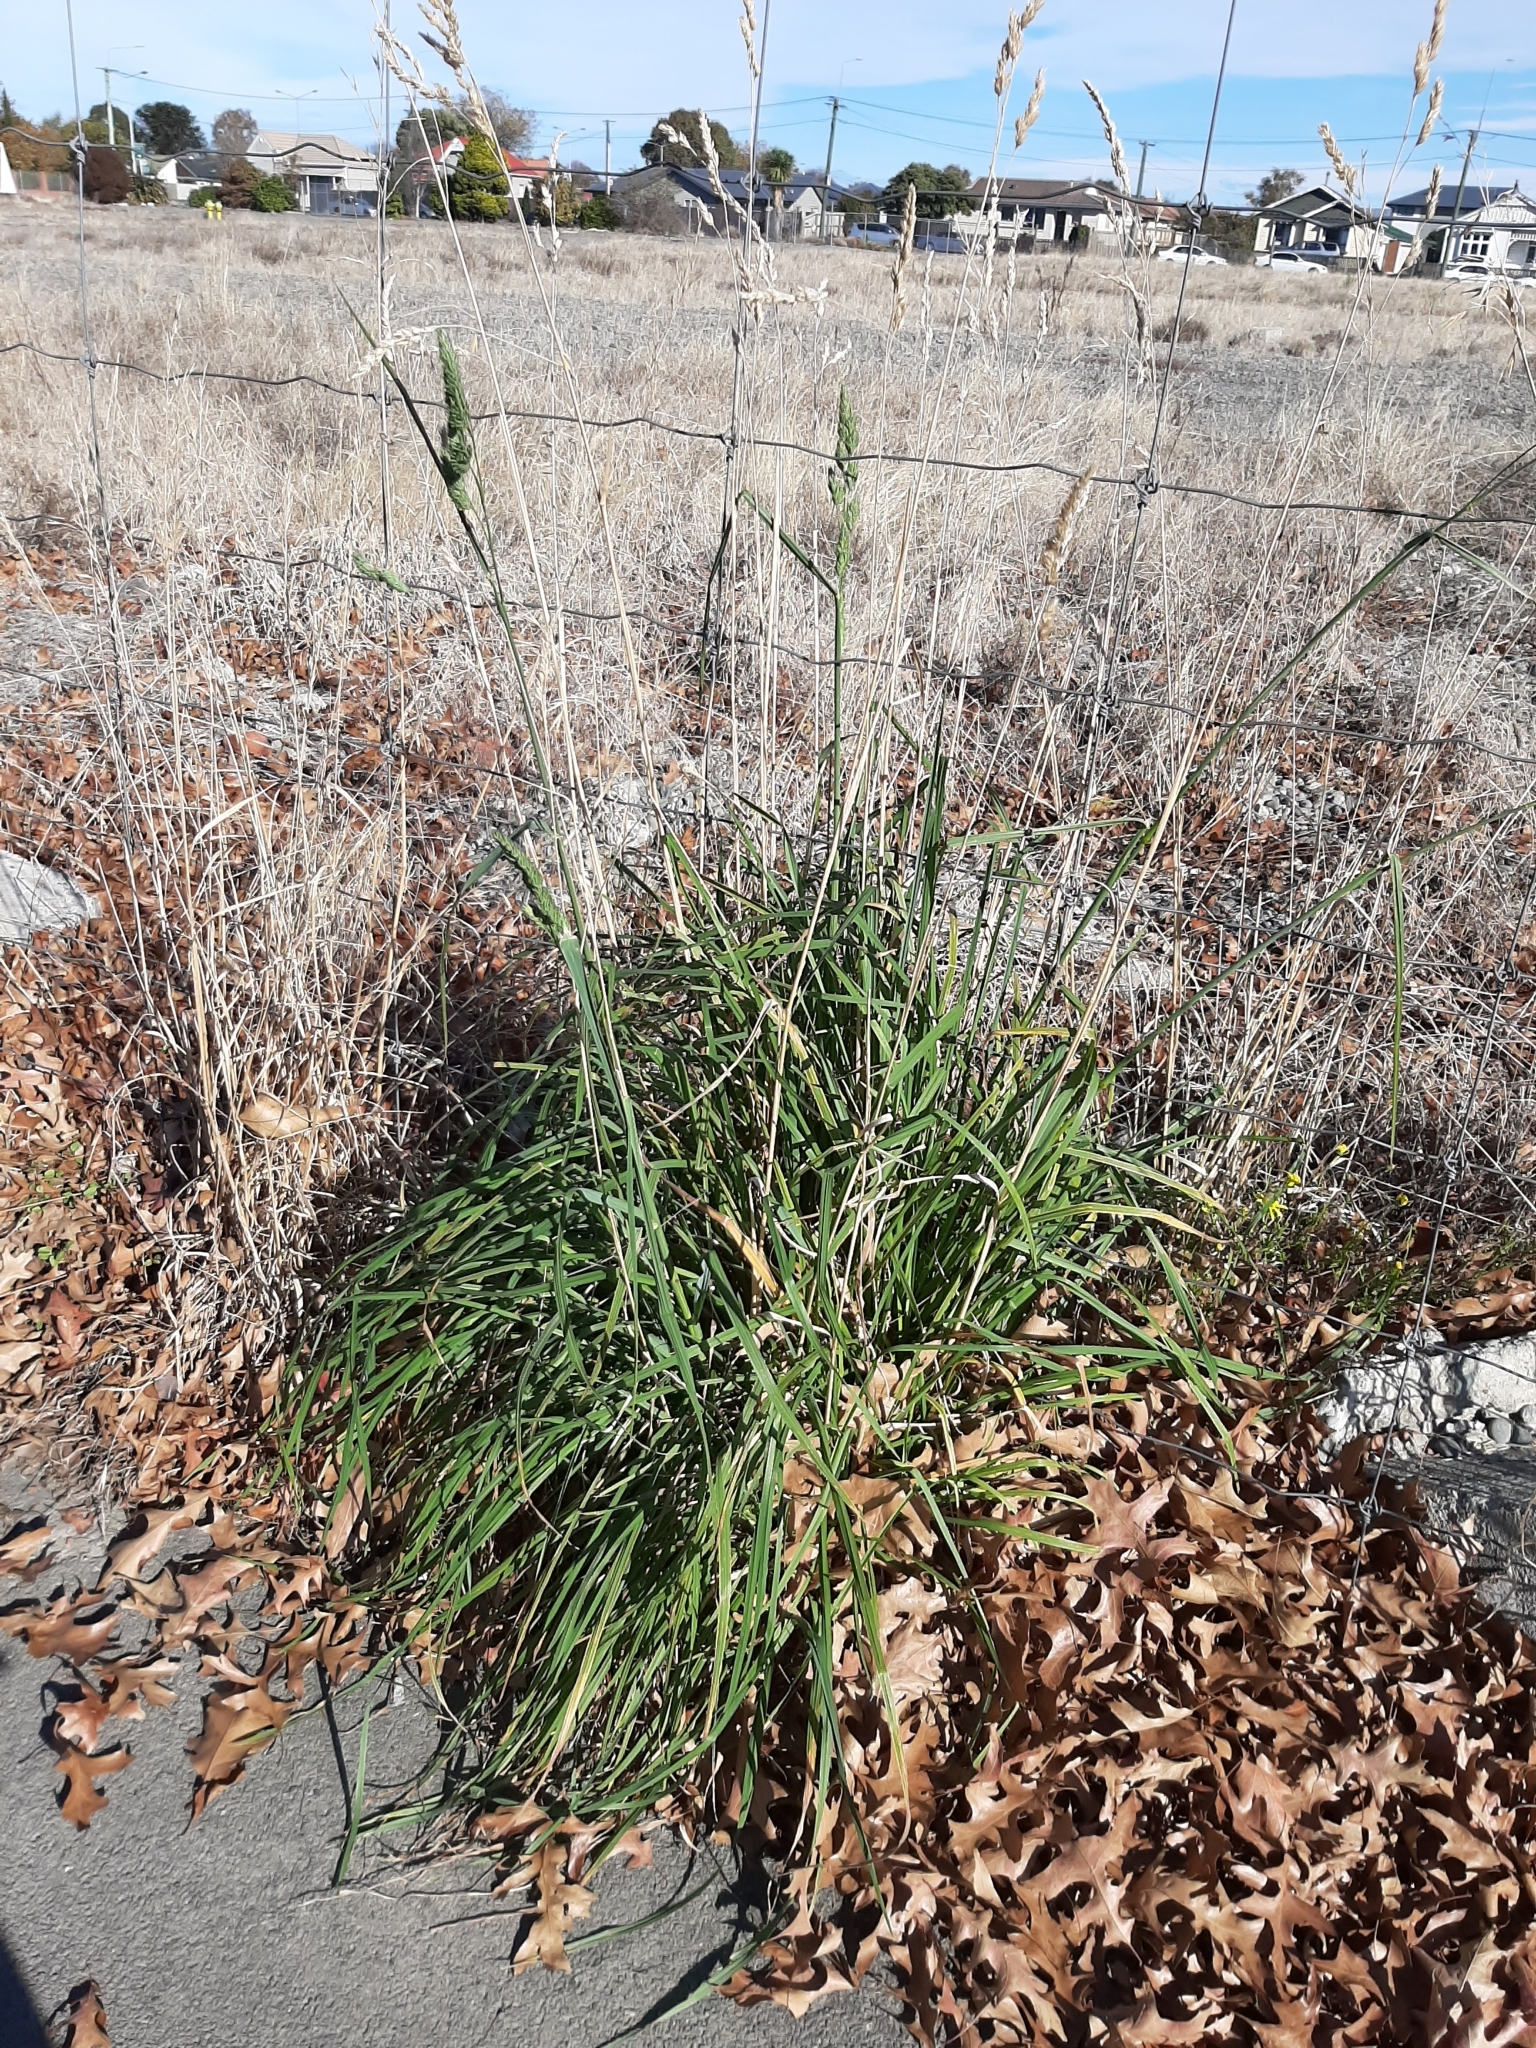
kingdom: Plantae
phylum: Tracheophyta
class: Liliopsida
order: Poales
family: Poaceae
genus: Dactylis
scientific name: Dactylis glomerata
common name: Orchardgrass
